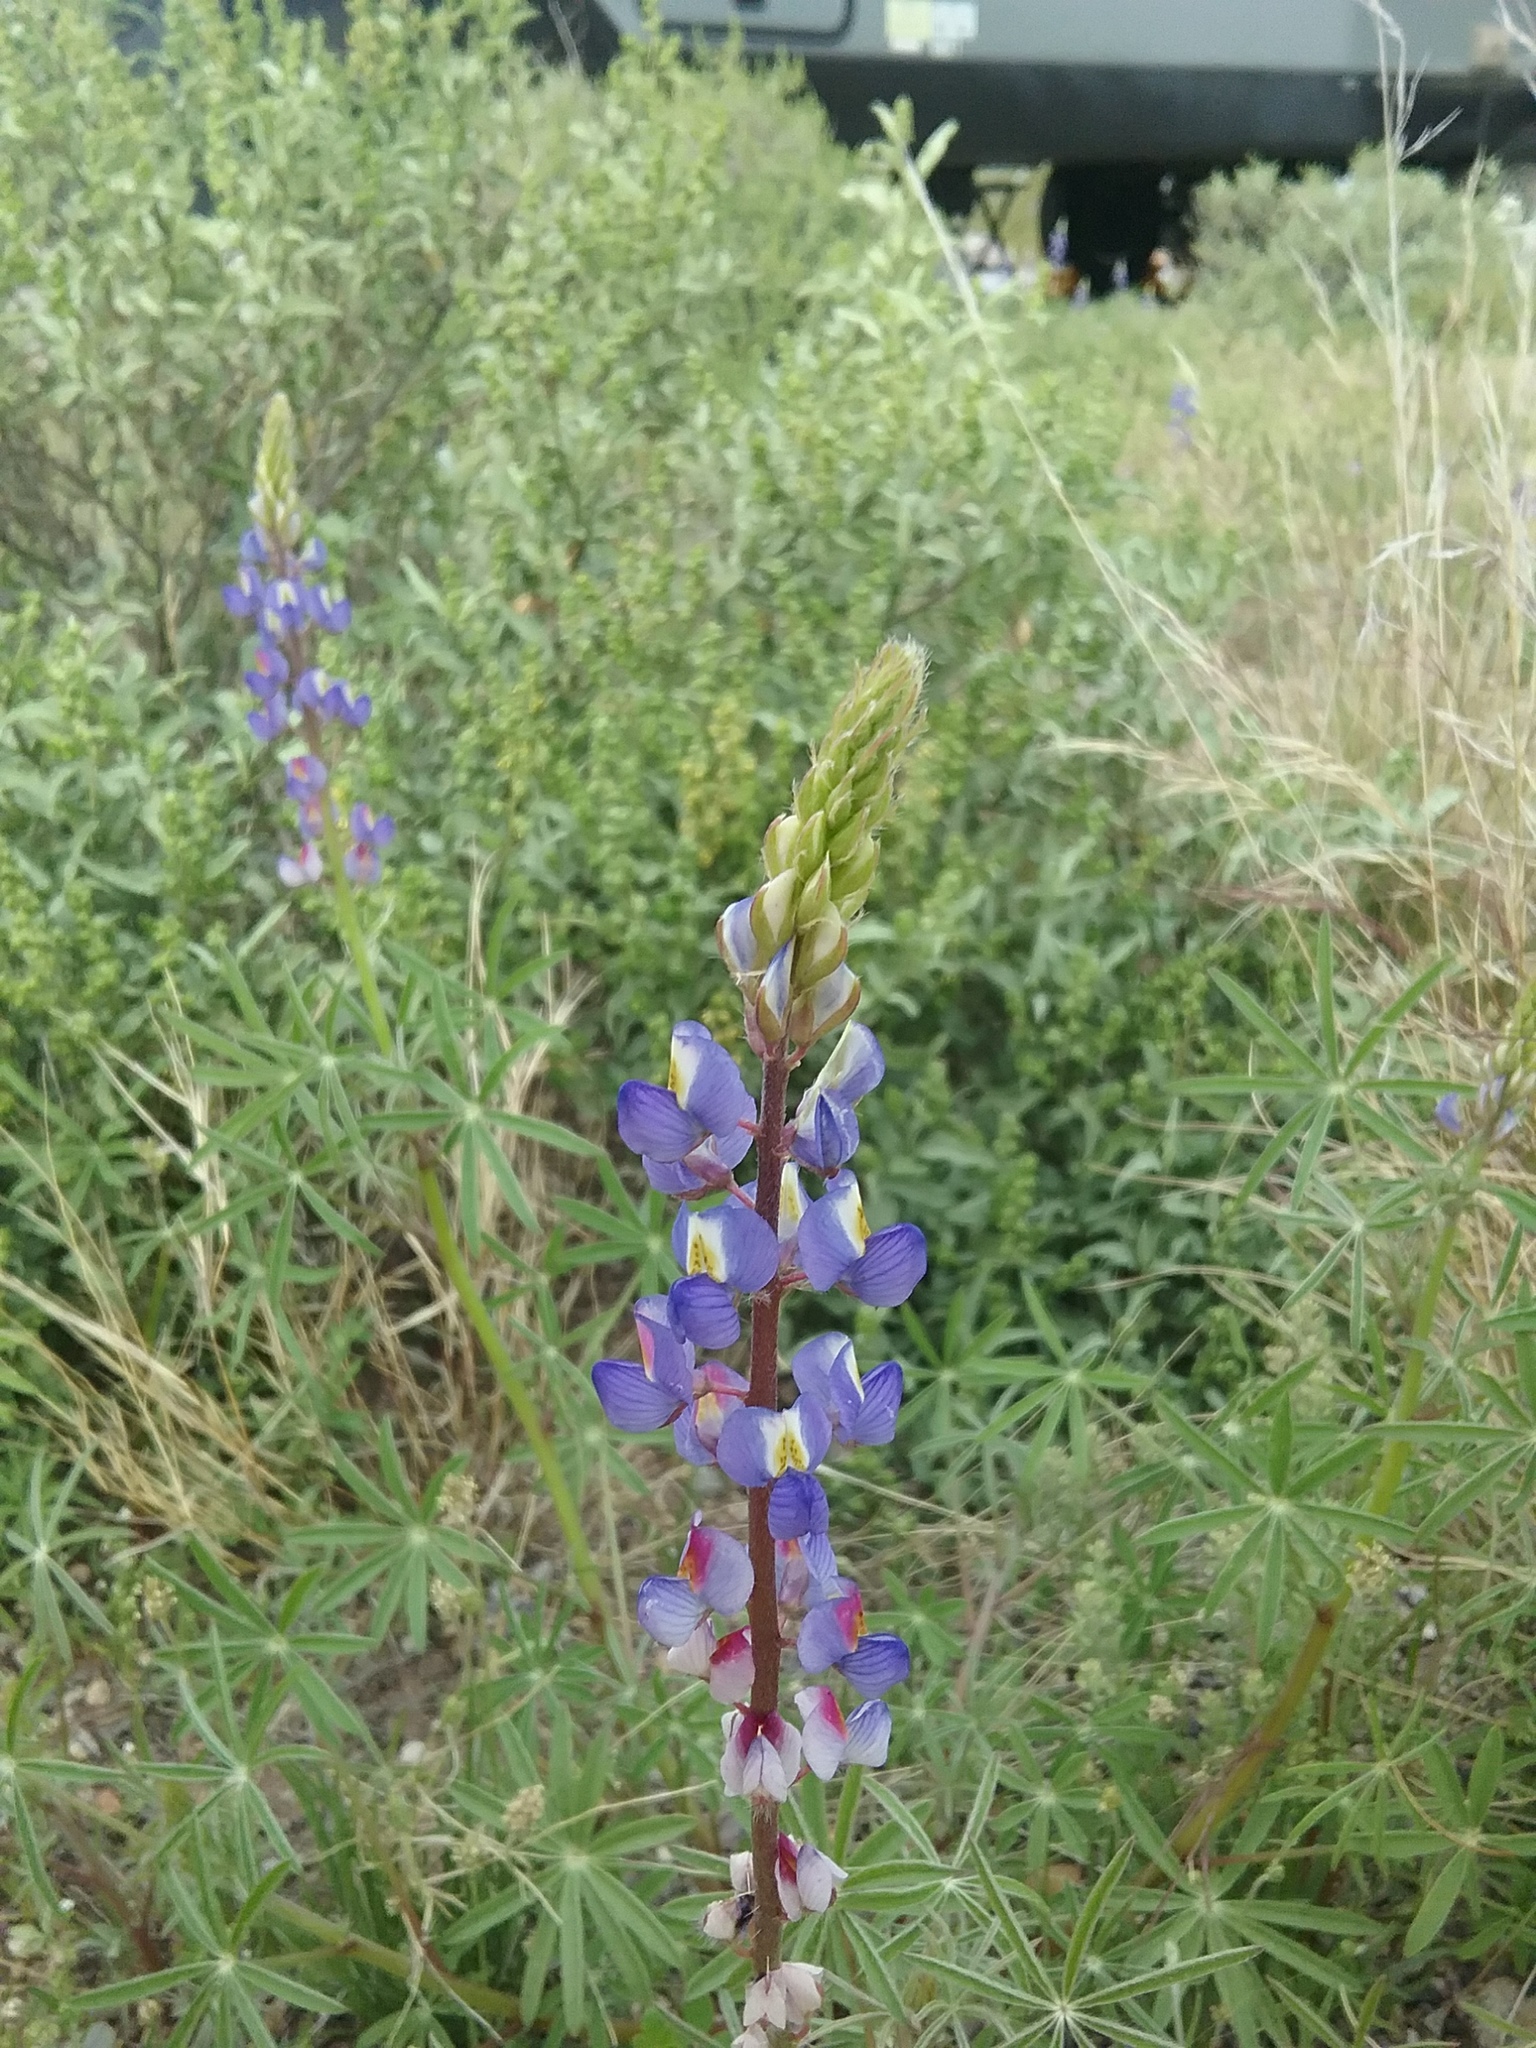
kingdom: Plantae
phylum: Tracheophyta
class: Magnoliopsida
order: Fabales
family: Fabaceae
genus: Lupinus
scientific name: Lupinus sparsiflorus
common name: Coulter's lupine
